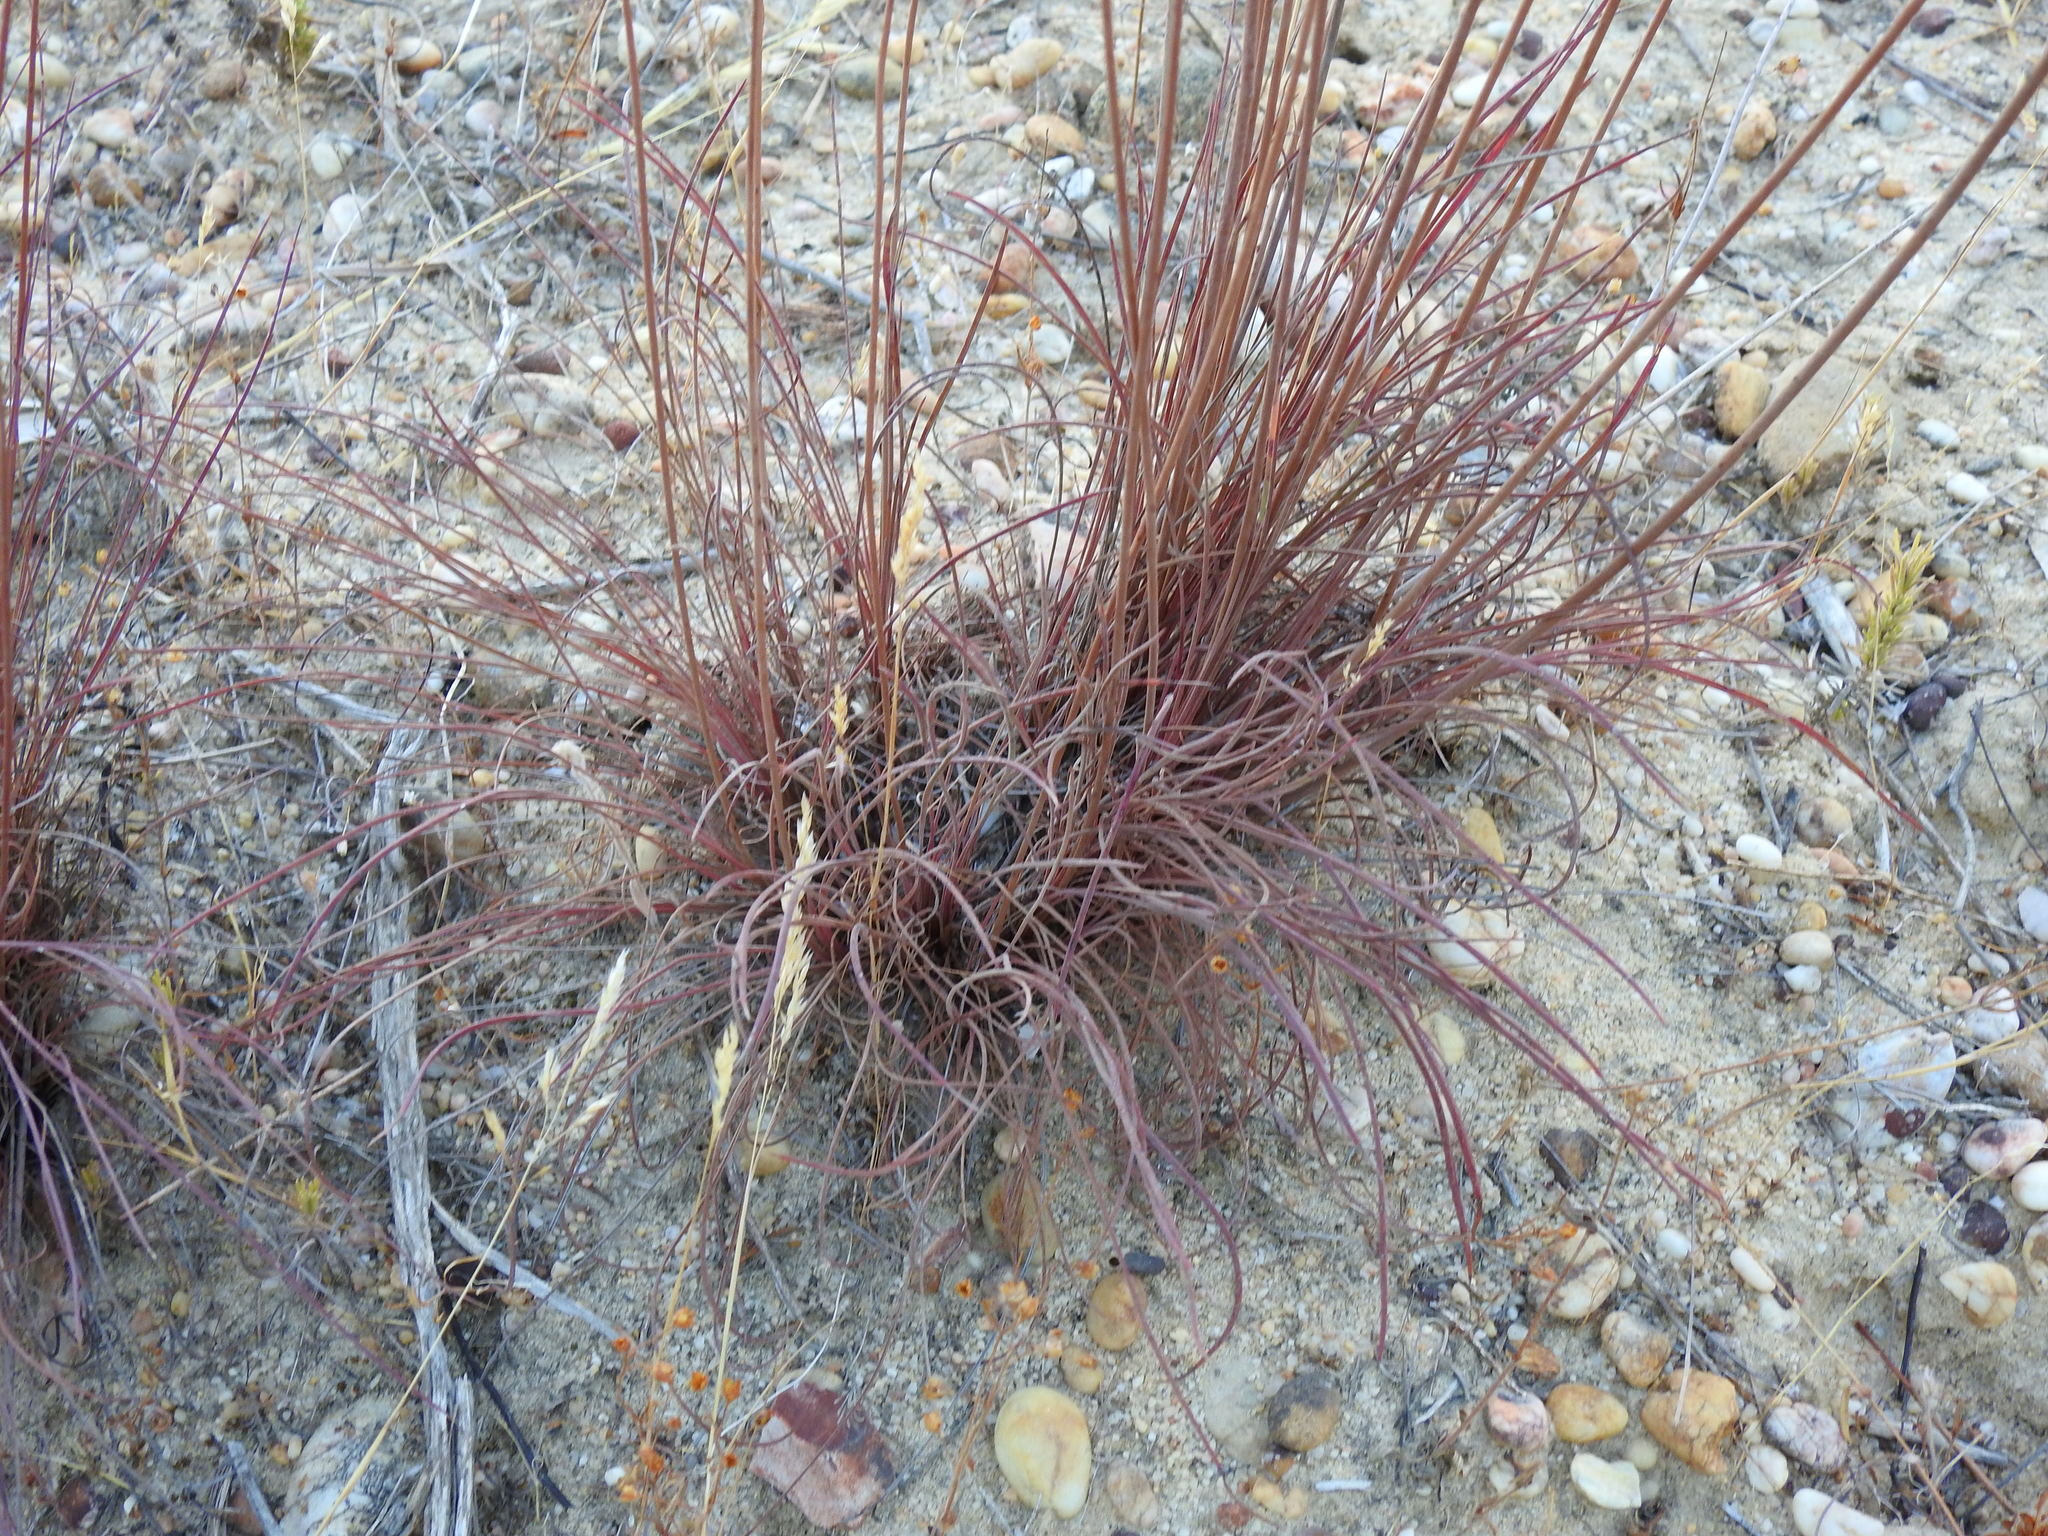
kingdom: Plantae
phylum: Tracheophyta
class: Magnoliopsida
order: Caryophyllales
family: Plumbaginaceae
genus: Armeria
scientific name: Armeria macrophylla
